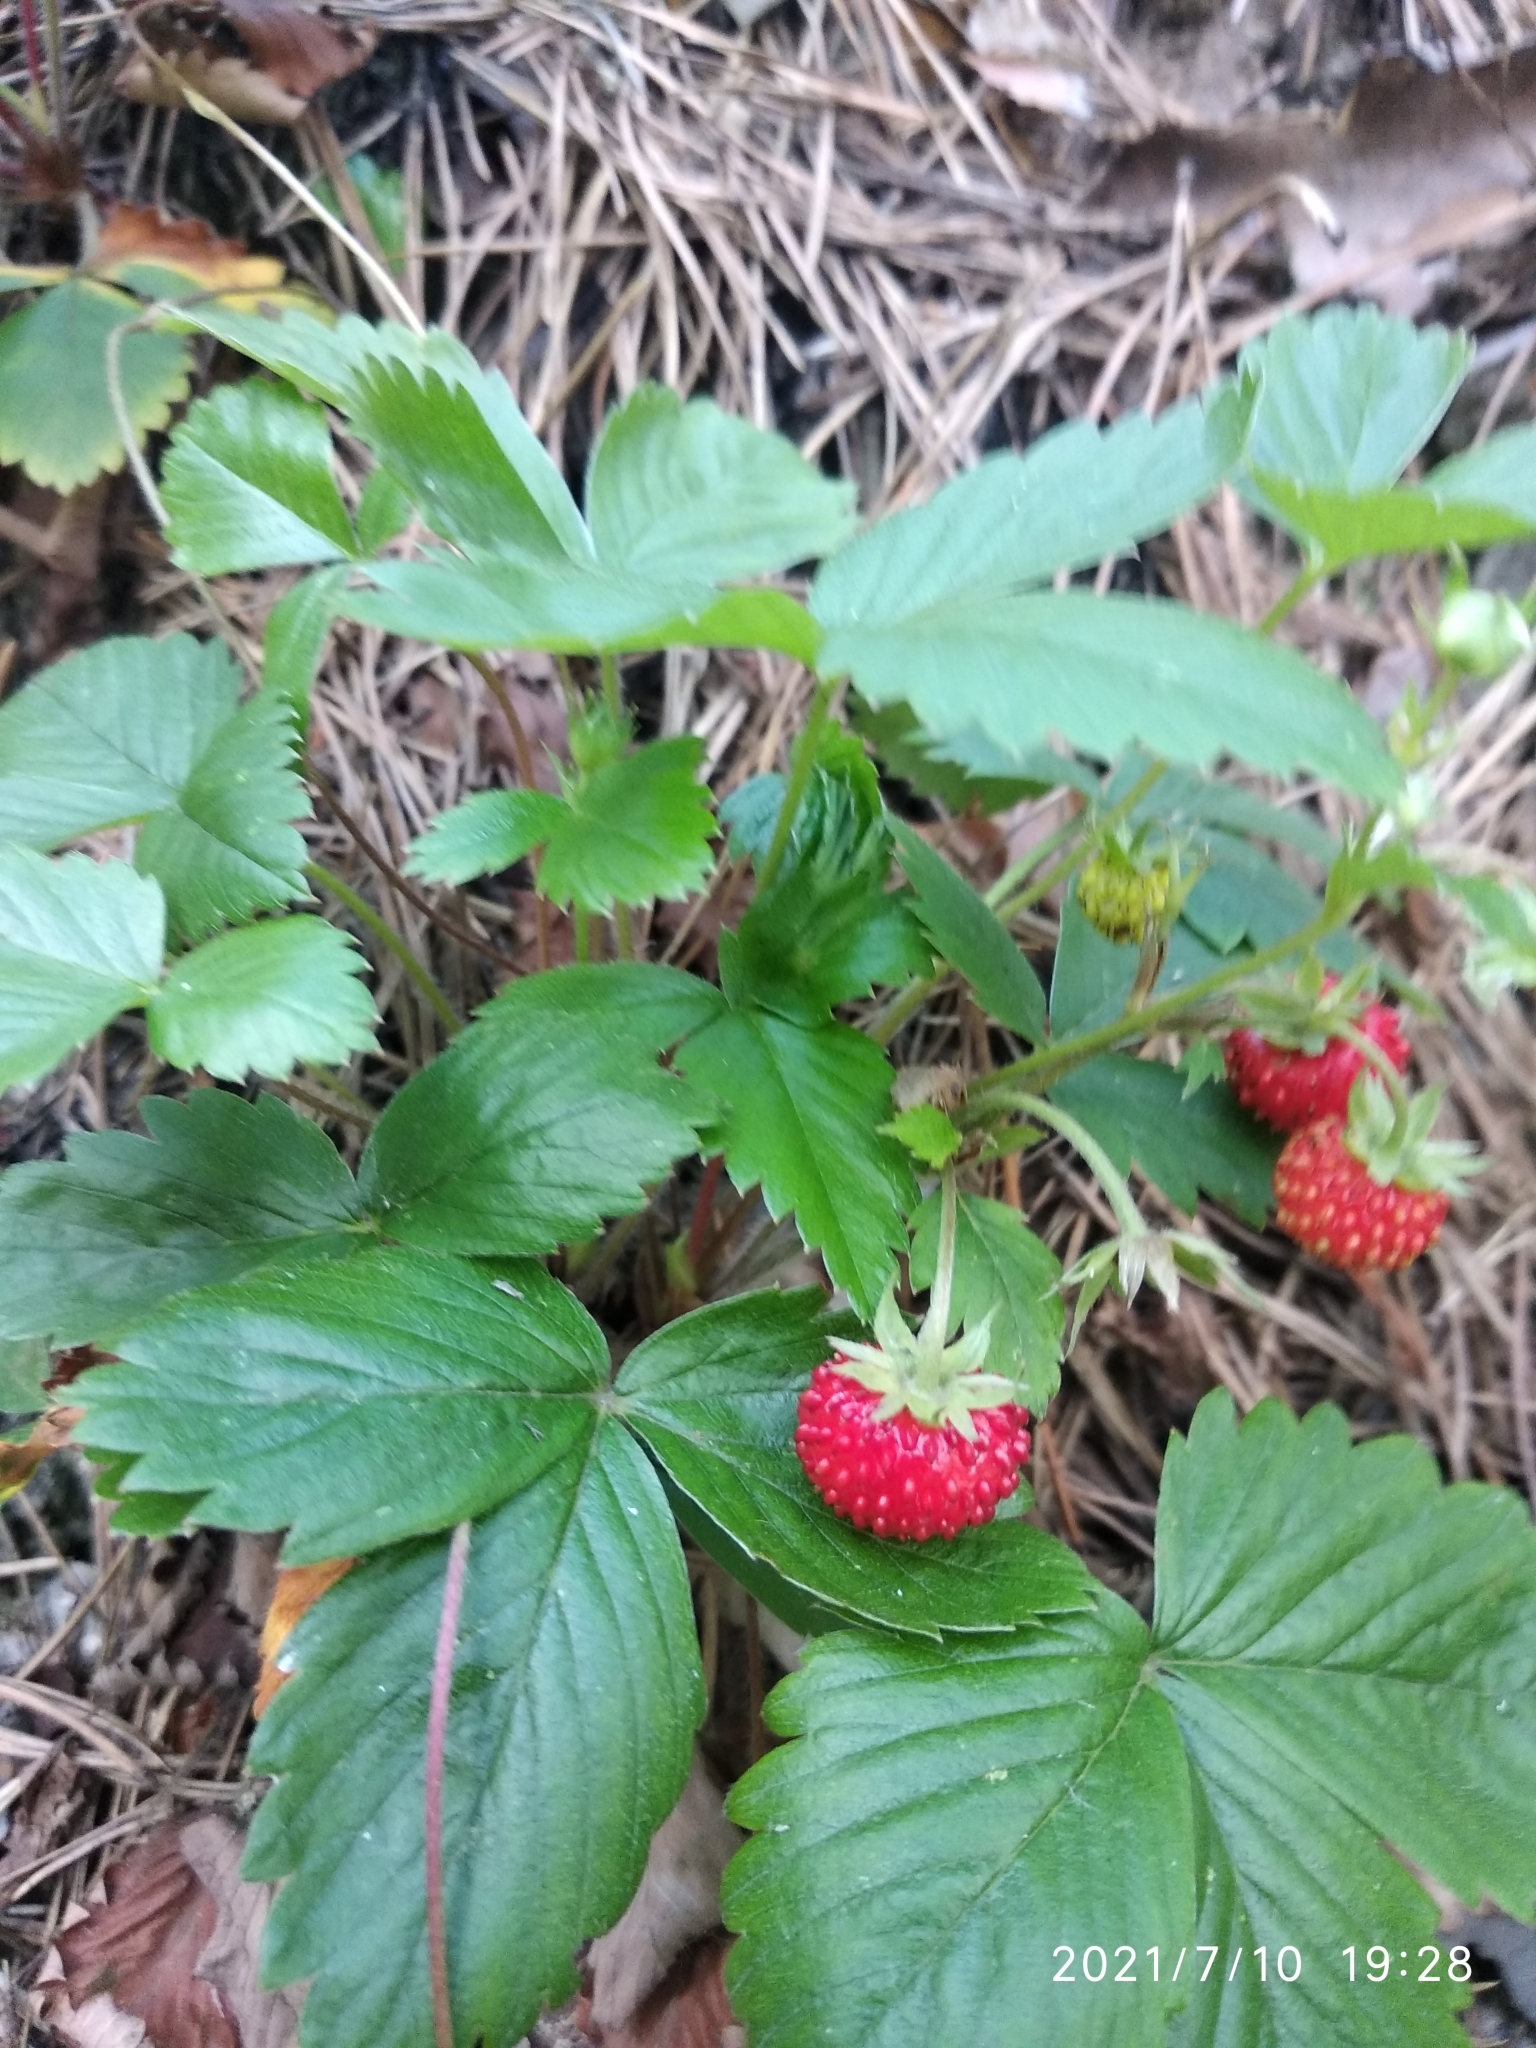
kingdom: Plantae
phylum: Tracheophyta
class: Magnoliopsida
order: Rosales
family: Rosaceae
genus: Fragaria
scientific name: Fragaria vesca
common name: Wild strawberry
